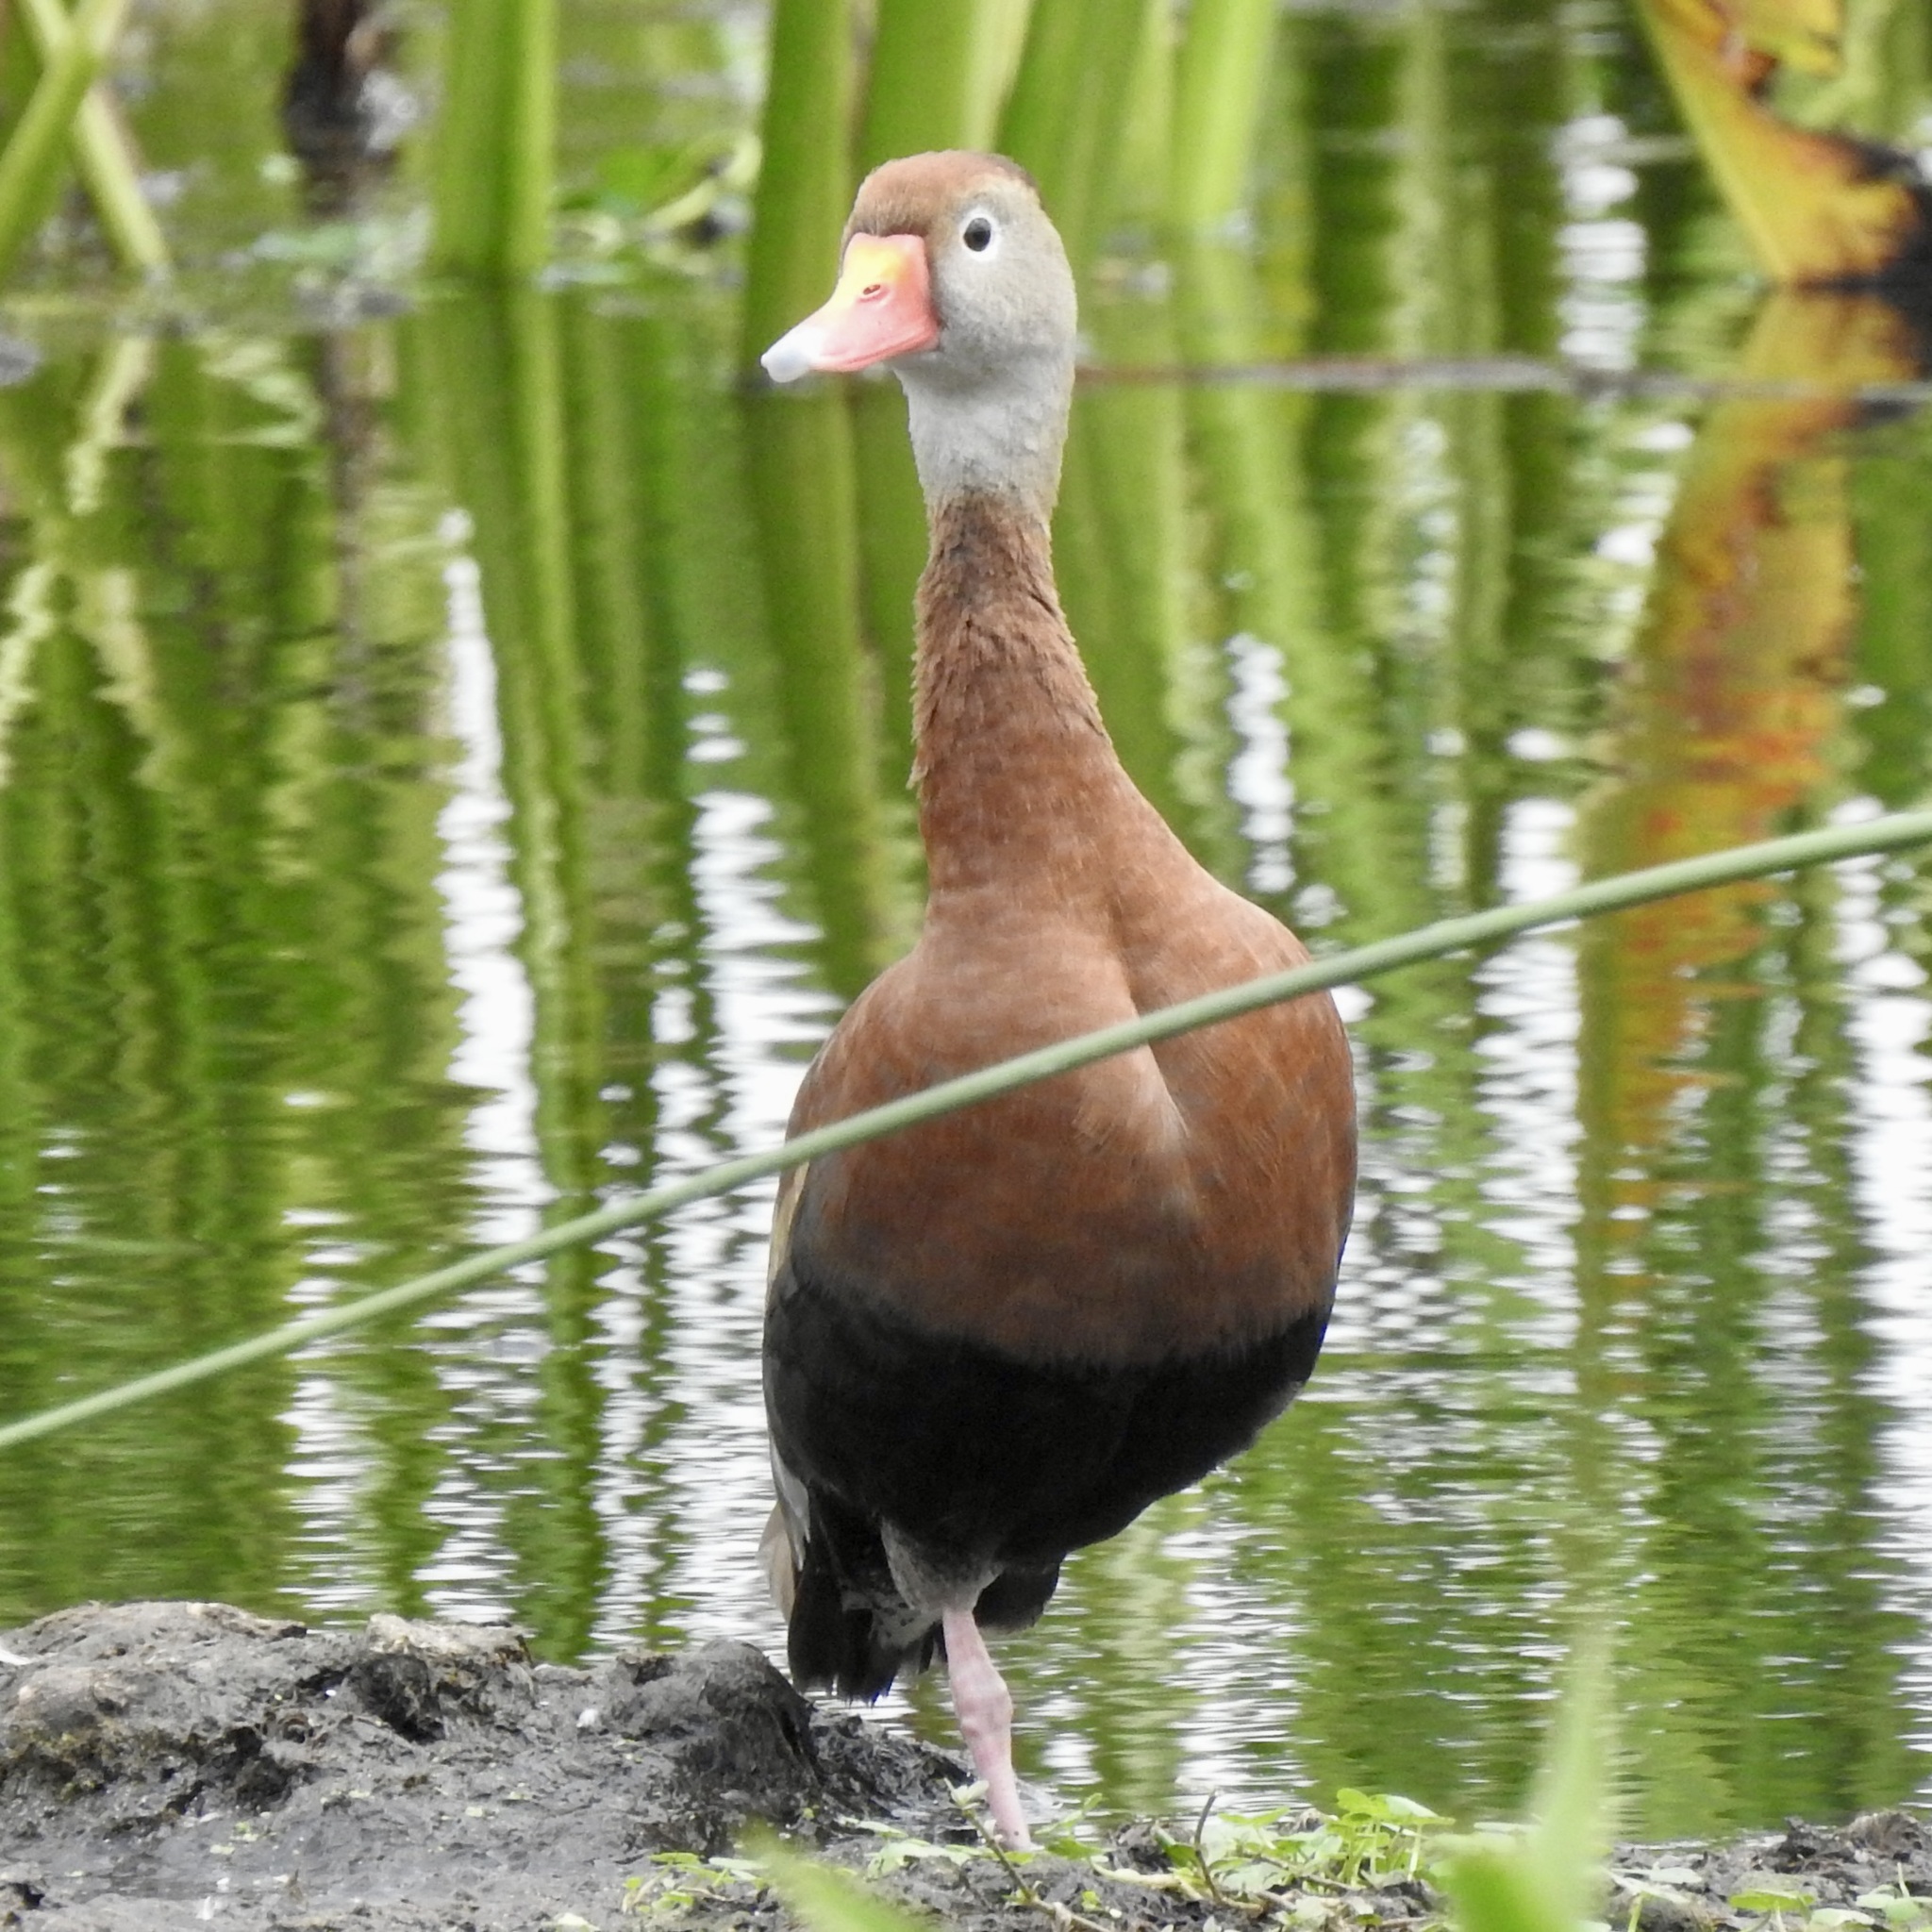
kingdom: Animalia
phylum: Chordata
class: Aves
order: Anseriformes
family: Anatidae
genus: Dendrocygna
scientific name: Dendrocygna autumnalis
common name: Black-bellied whistling duck
